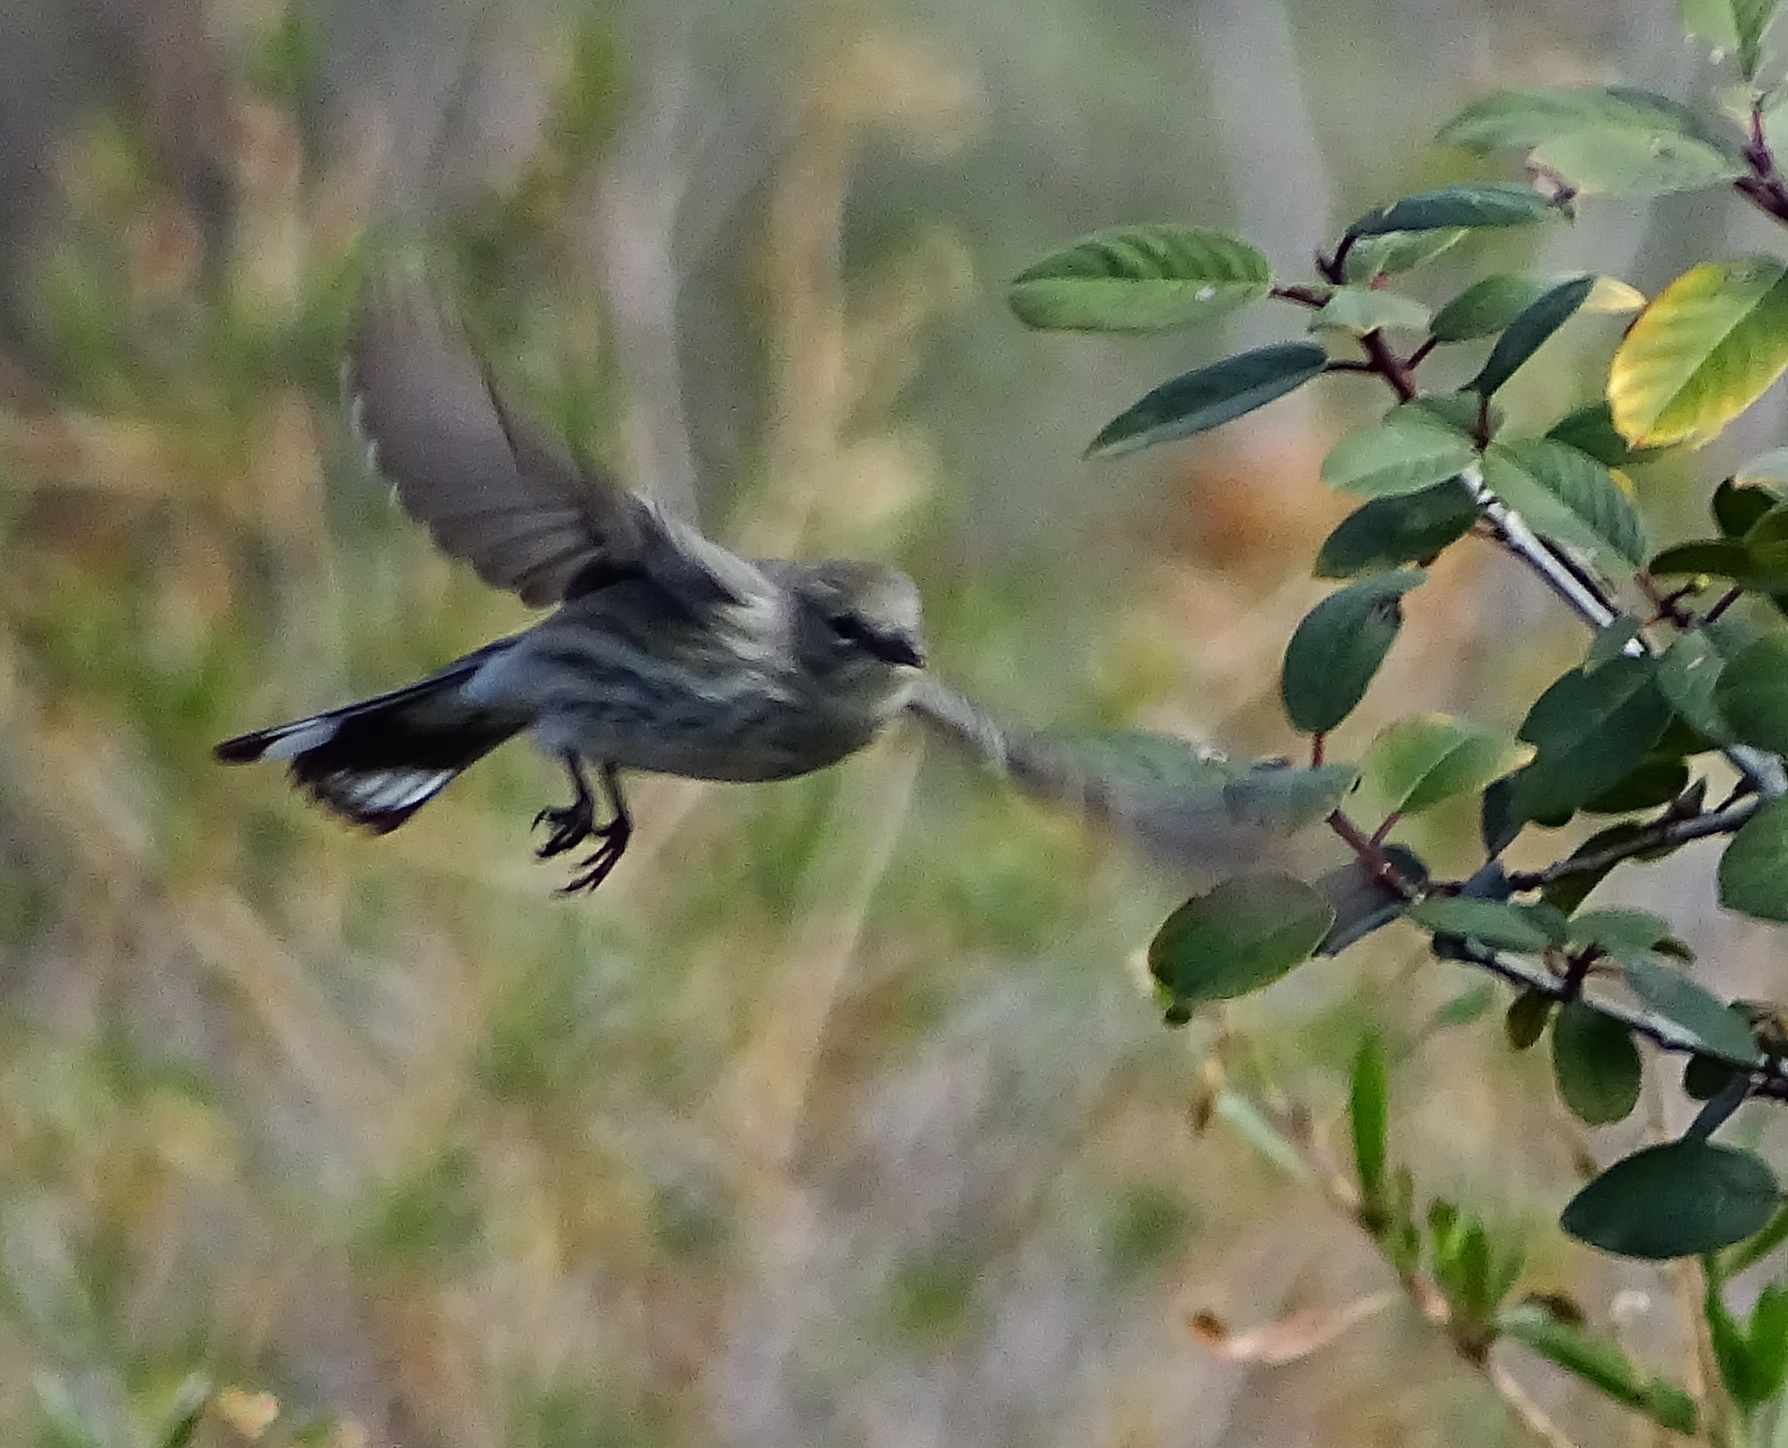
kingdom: Animalia
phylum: Chordata
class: Aves
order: Passeriformes
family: Parulidae
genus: Setophaga
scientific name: Setophaga coronata
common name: Myrtle warbler
